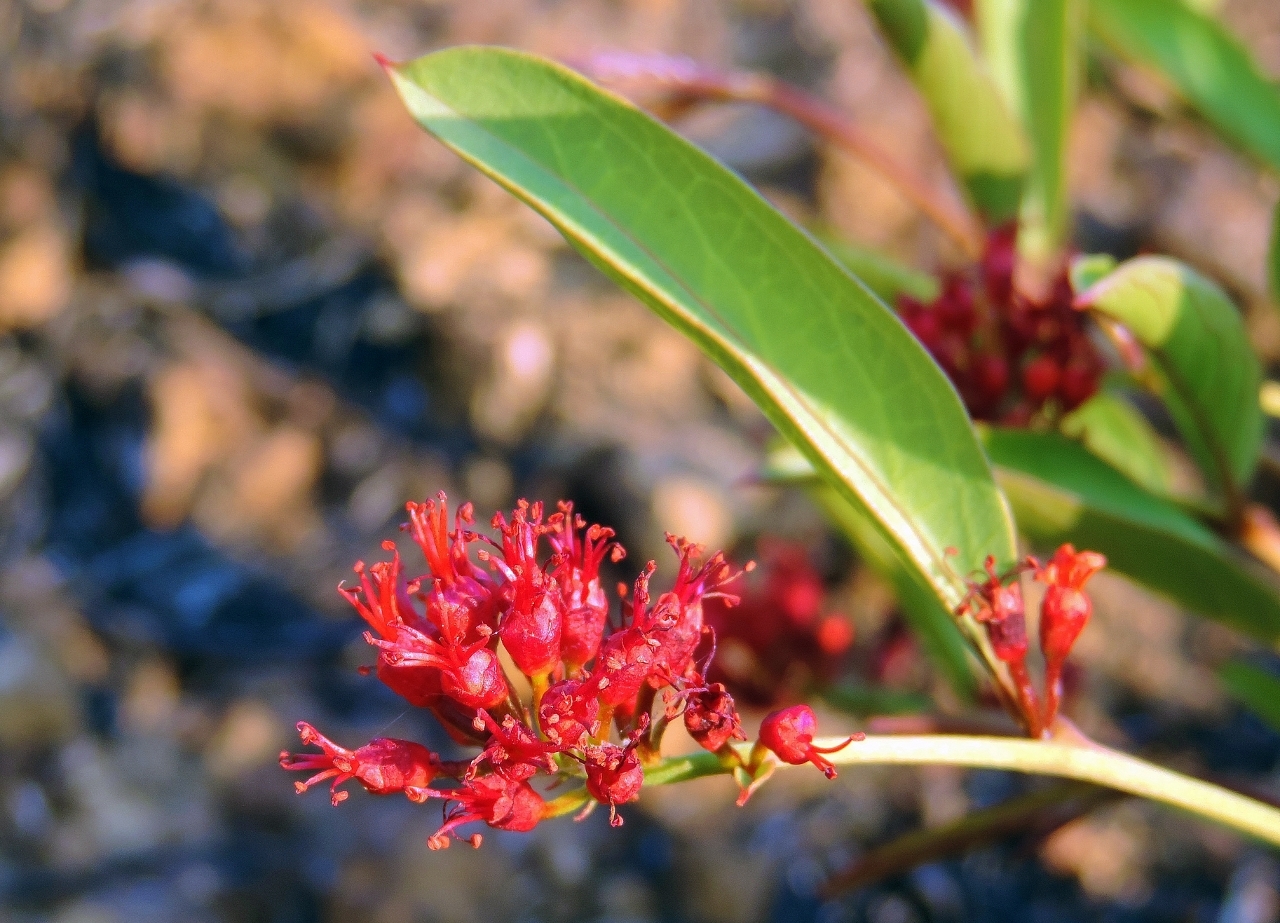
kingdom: Plantae
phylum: Tracheophyta
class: Magnoliopsida
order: Myrtales
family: Combretaceae
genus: Combretum
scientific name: Combretum oatesii
